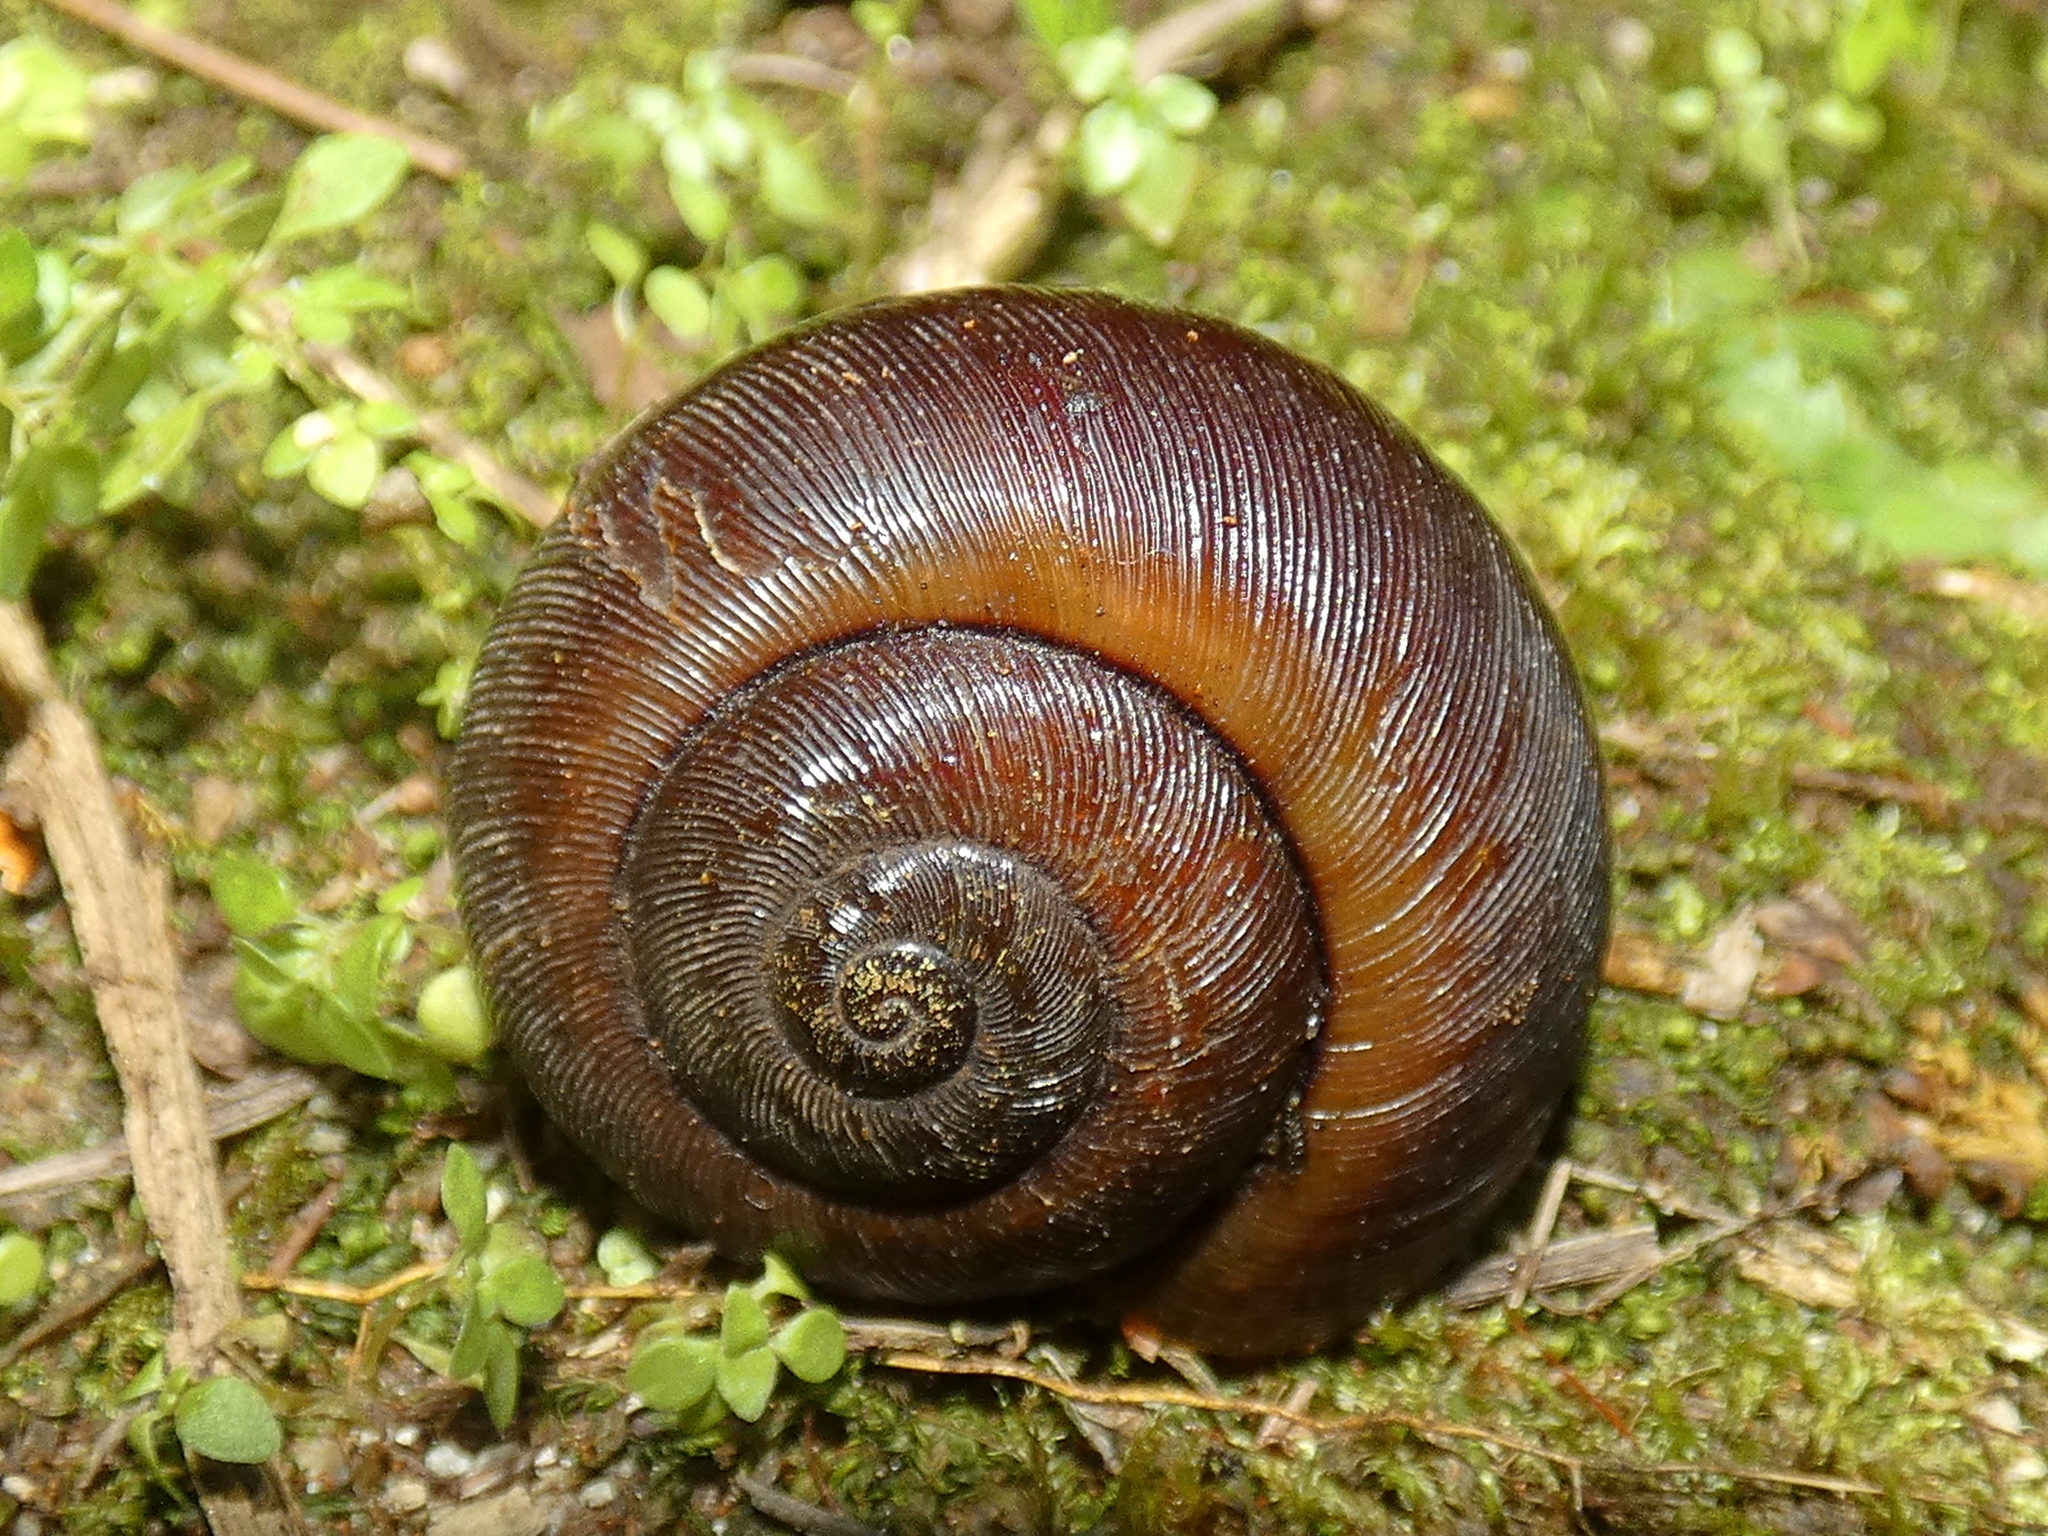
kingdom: Animalia
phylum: Mollusca
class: Gastropoda
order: Stylommatophora
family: Rhytididae
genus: Limesta
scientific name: Limesta sheridani
